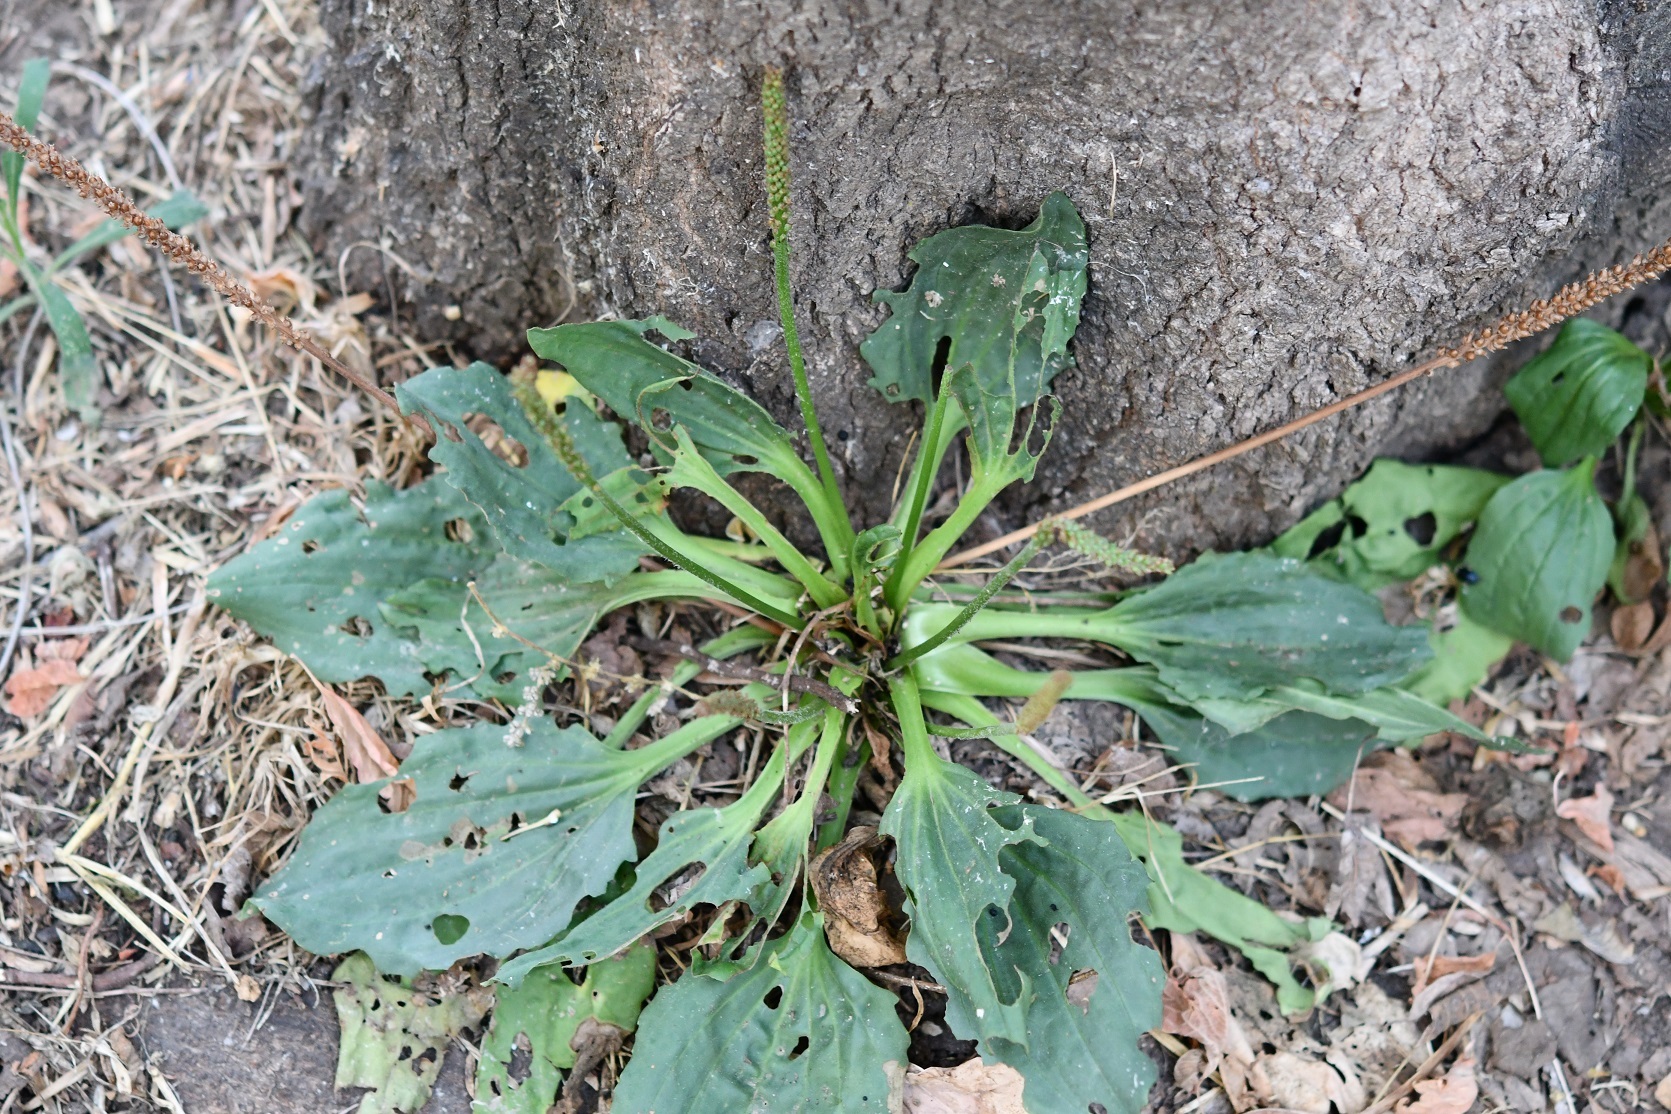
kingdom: Plantae
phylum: Tracheophyta
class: Magnoliopsida
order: Lamiales
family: Plantaginaceae
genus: Plantago
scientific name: Plantago major
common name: Common plantain
